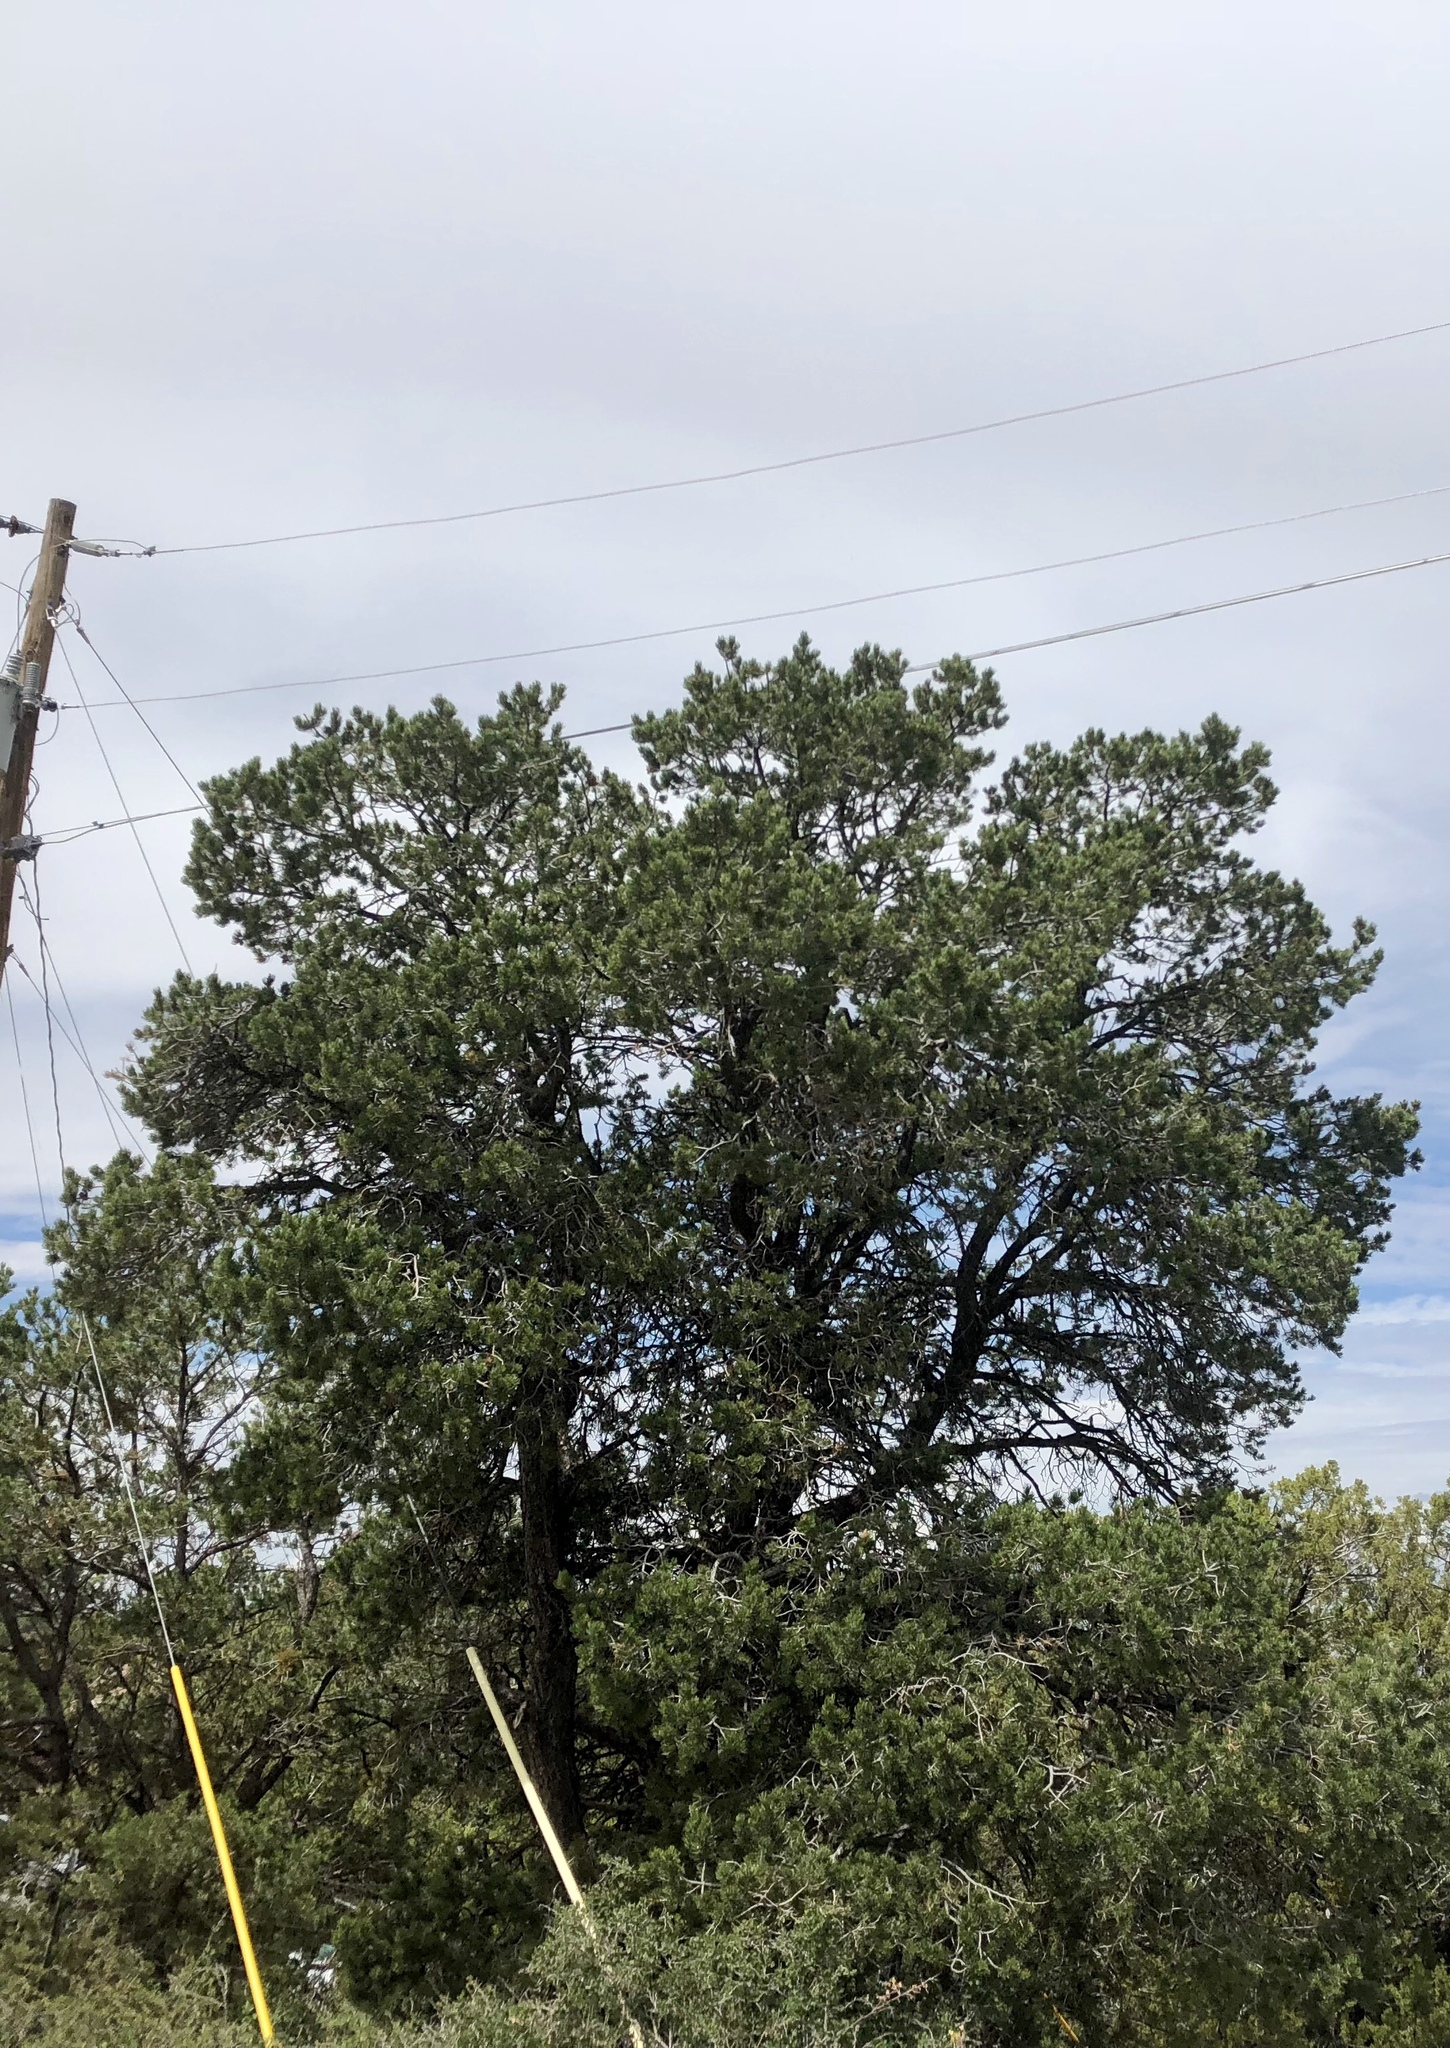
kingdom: Plantae
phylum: Tracheophyta
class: Pinopsida
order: Pinales
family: Pinaceae
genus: Pinus
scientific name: Pinus edulis
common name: Colorado pinyon
